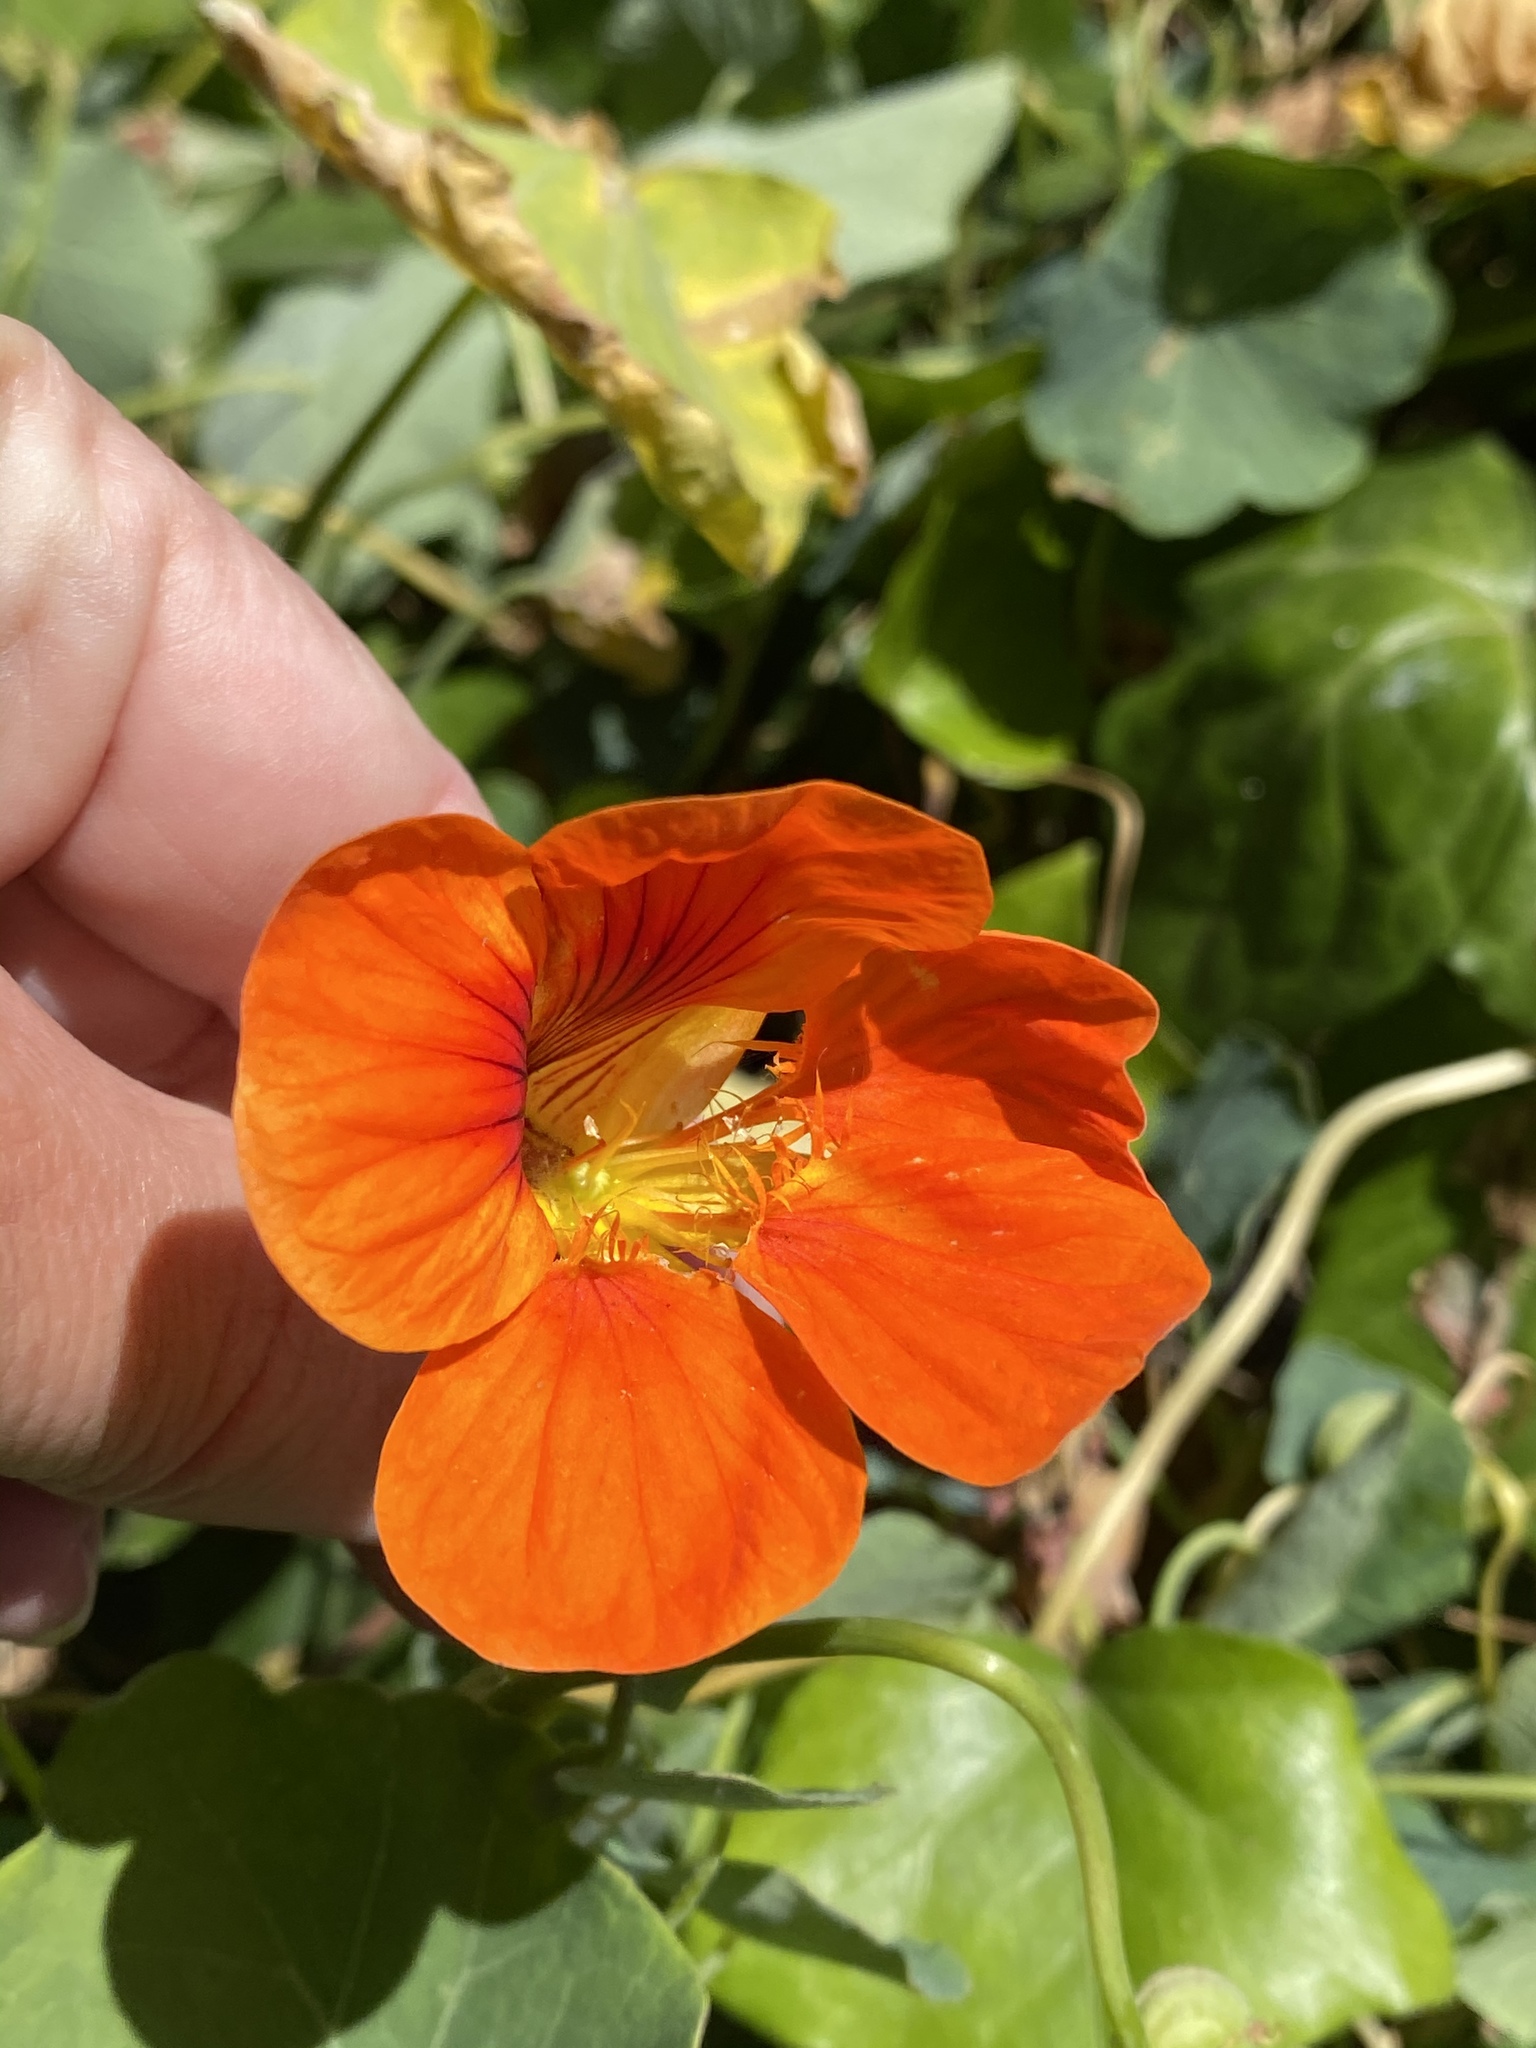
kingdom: Plantae
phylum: Tracheophyta
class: Magnoliopsida
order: Brassicales
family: Tropaeolaceae
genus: Tropaeolum
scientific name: Tropaeolum majus
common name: Nasturtium
